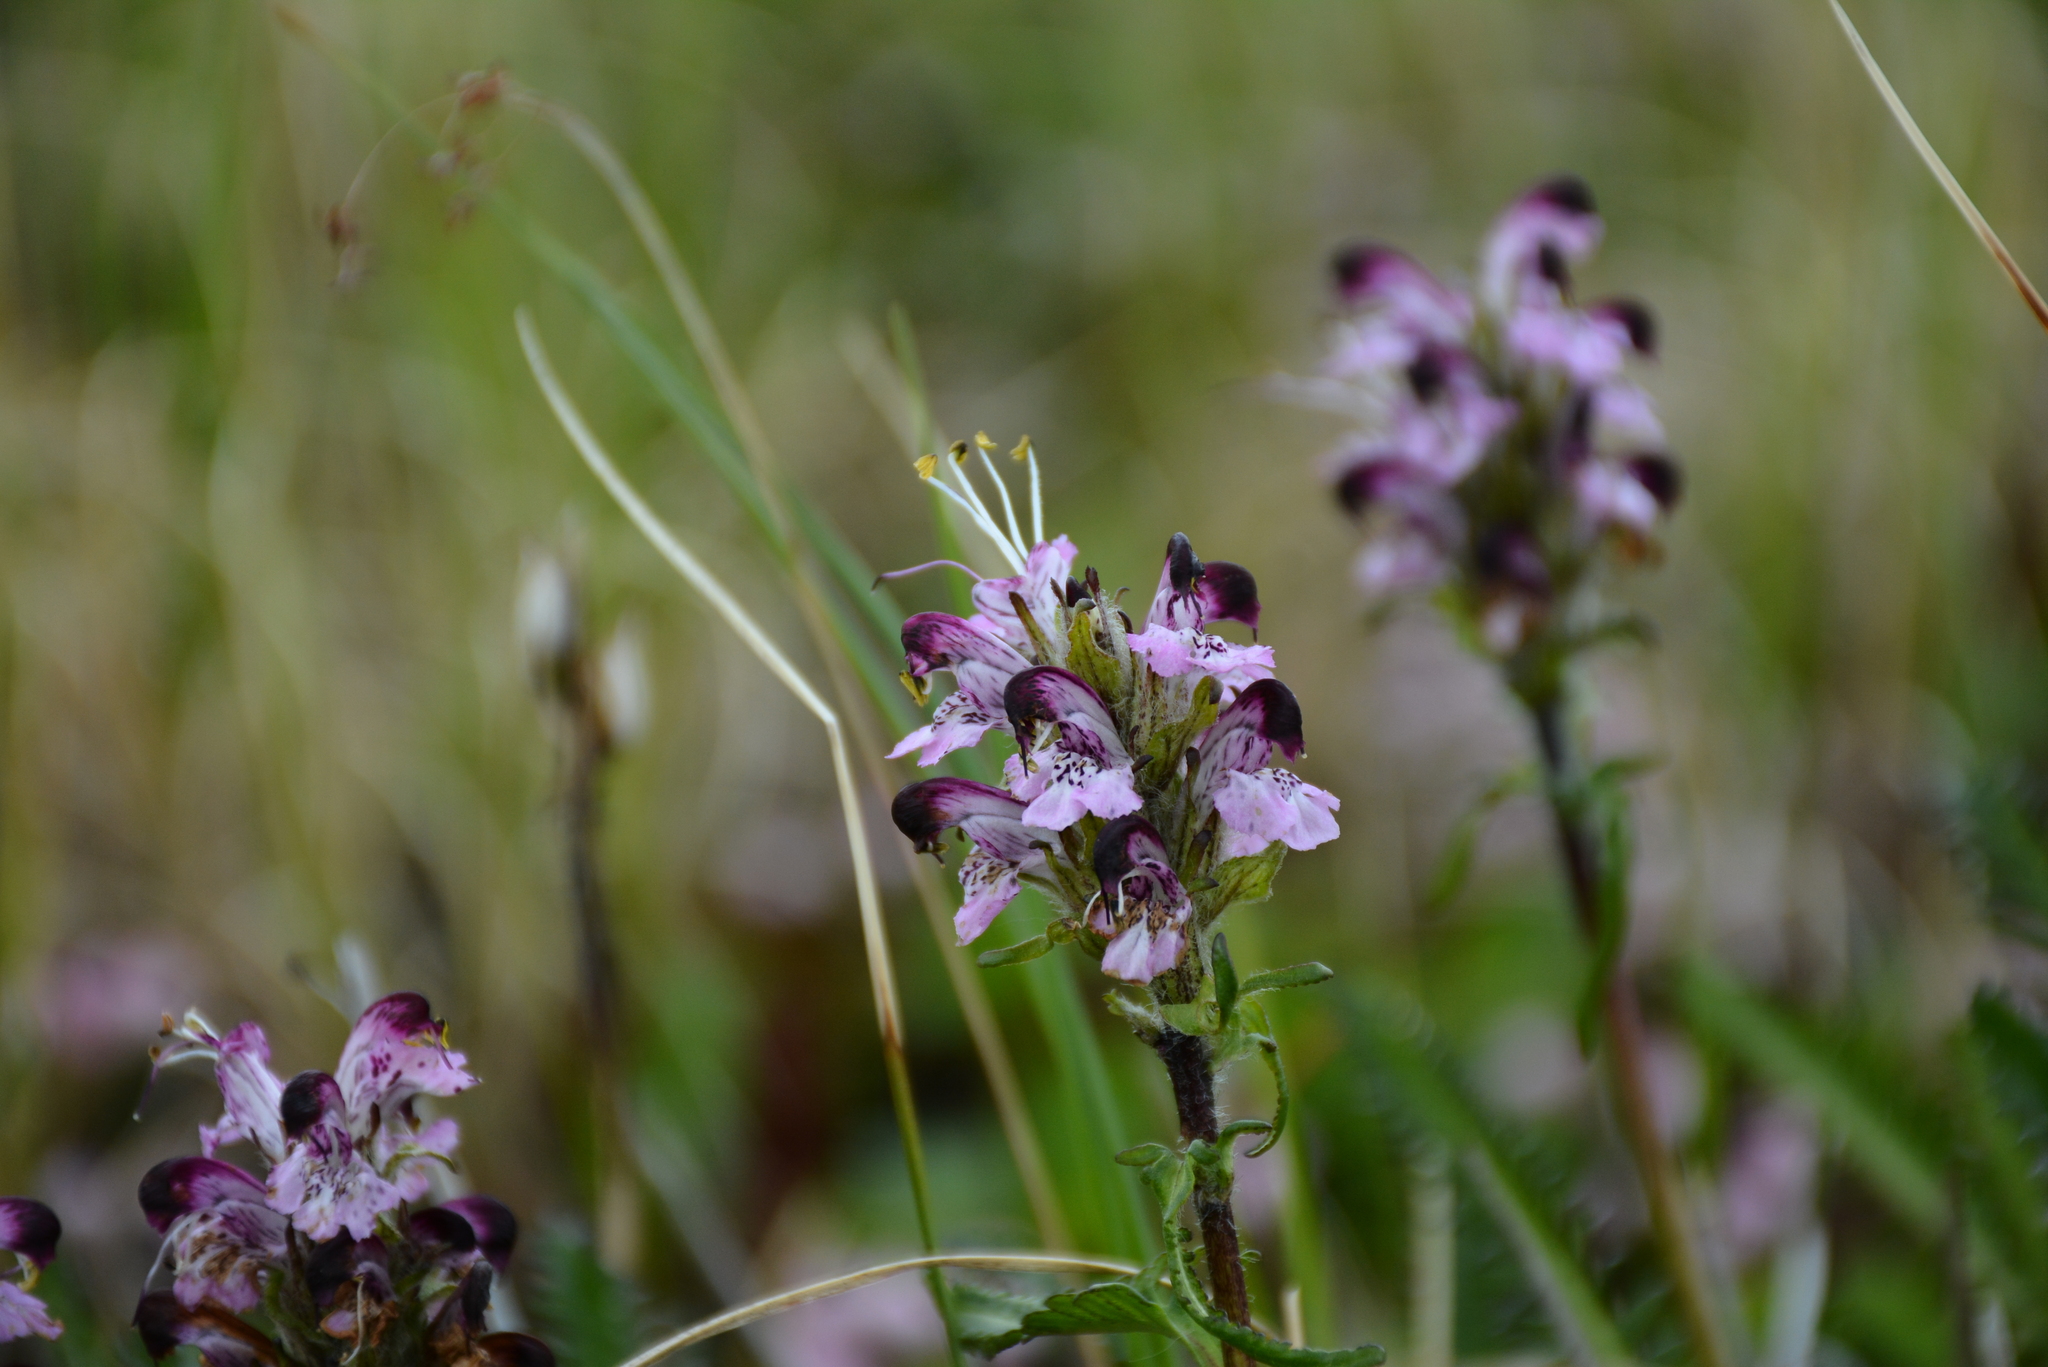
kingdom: Plantae
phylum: Tracheophyta
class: Magnoliopsida
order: Lamiales
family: Orobanchaceae
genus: Pedicularis
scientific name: Pedicularis novaiae-zemliae
